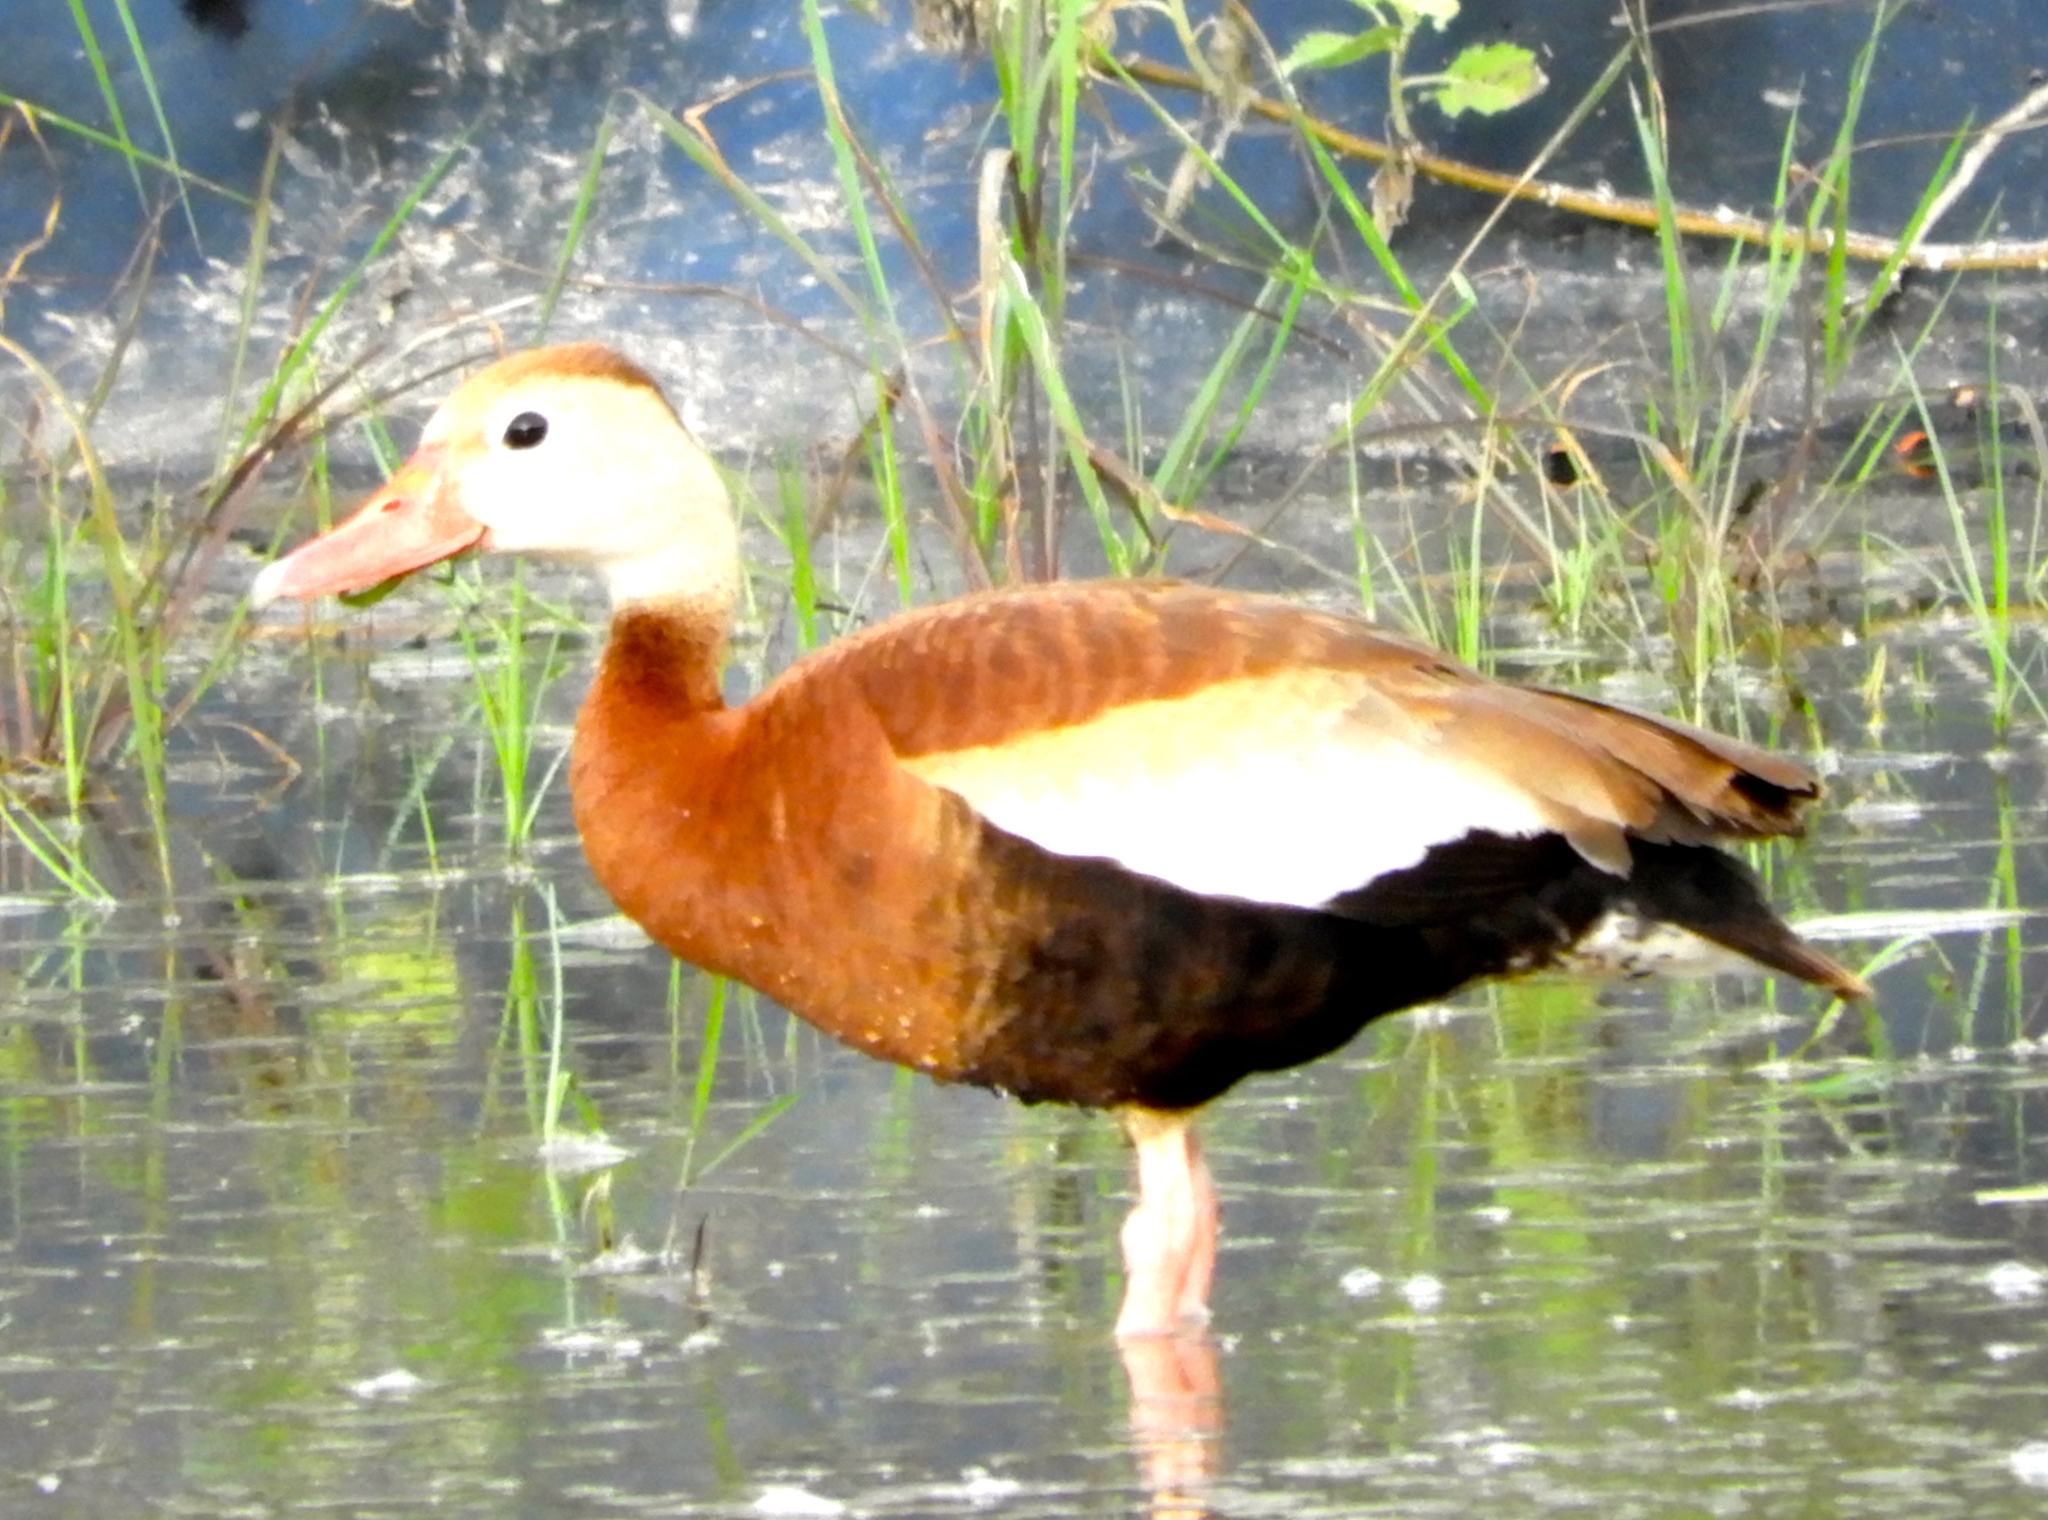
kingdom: Animalia
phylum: Chordata
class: Aves
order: Anseriformes
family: Anatidae
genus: Dendrocygna
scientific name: Dendrocygna autumnalis
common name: Black-bellied whistling duck
